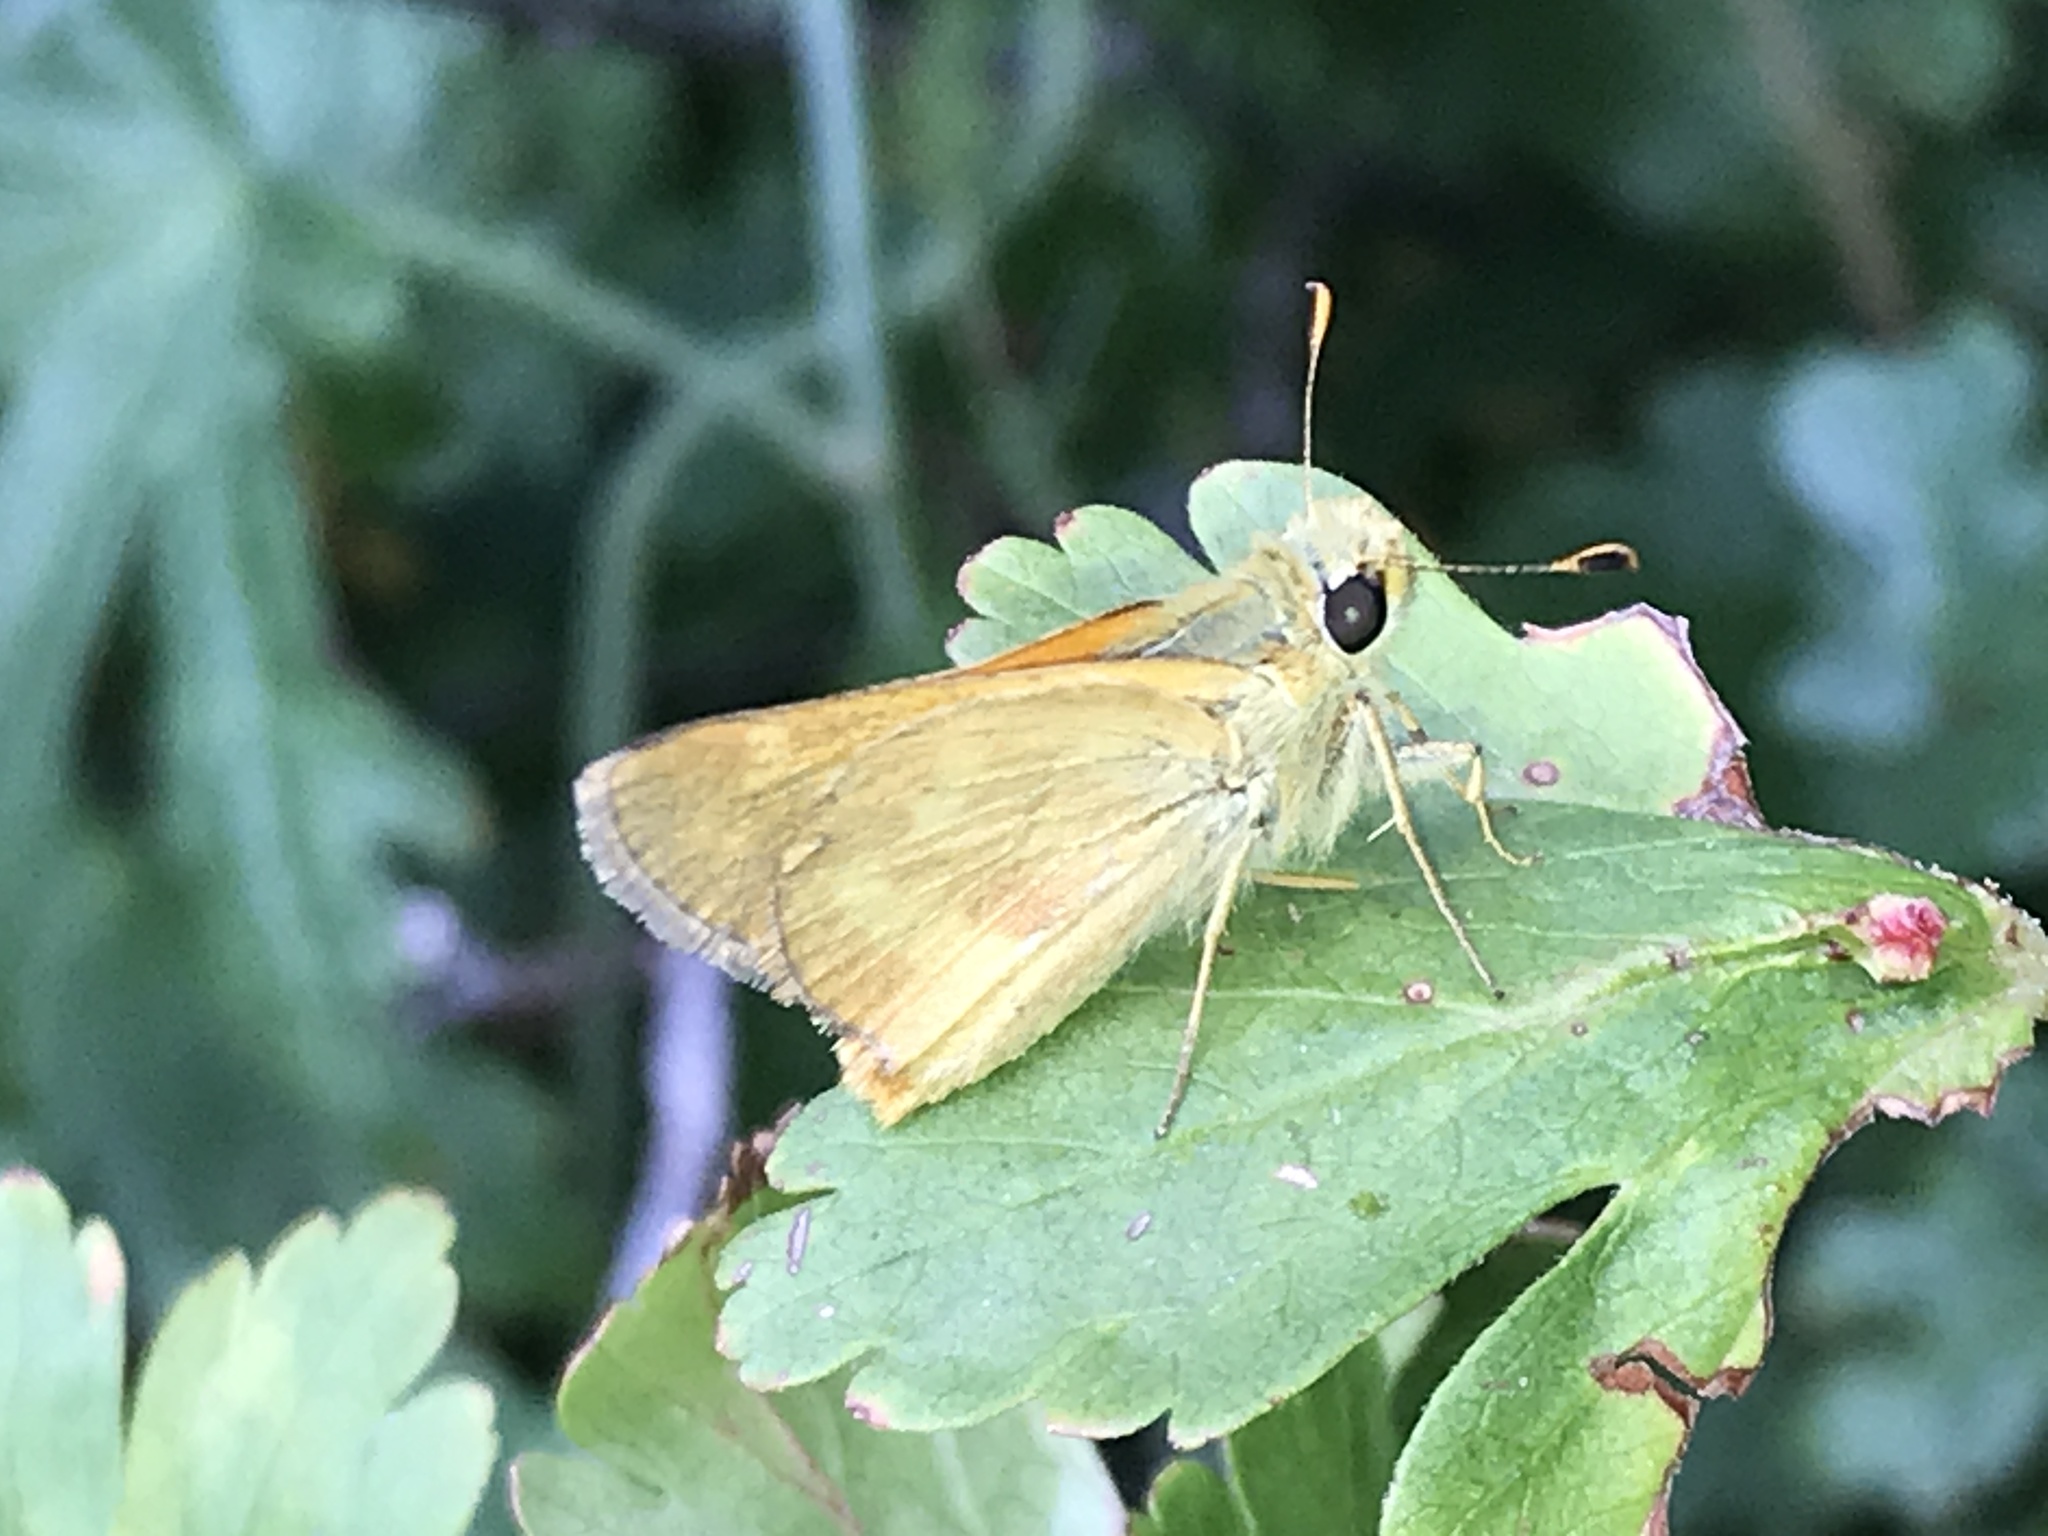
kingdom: Animalia
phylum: Arthropoda
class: Insecta
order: Lepidoptera
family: Hesperiidae
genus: Ochlodes
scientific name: Ochlodes sylvanoides
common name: Woodland skipper
